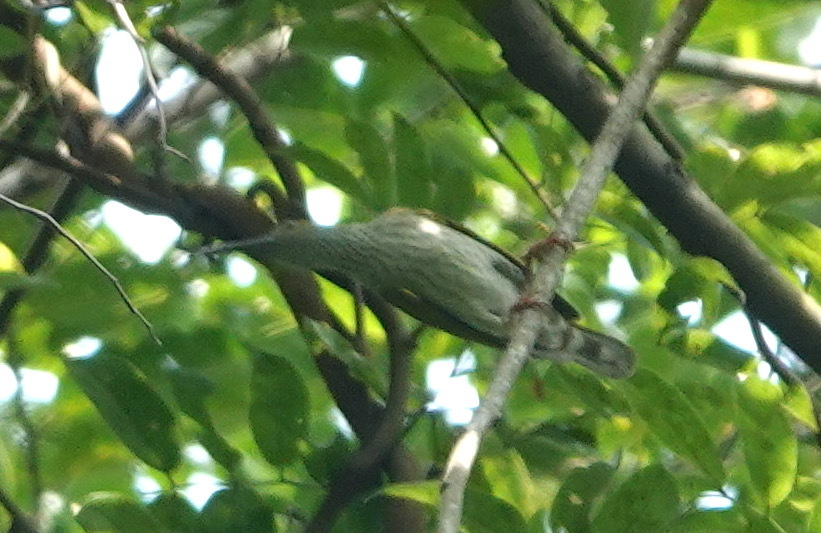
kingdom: Animalia
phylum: Chordata
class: Aves
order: Passeriformes
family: Nectariniidae
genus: Arachnothera
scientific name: Arachnothera affinis
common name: Streaky-breasted spiderhunter
